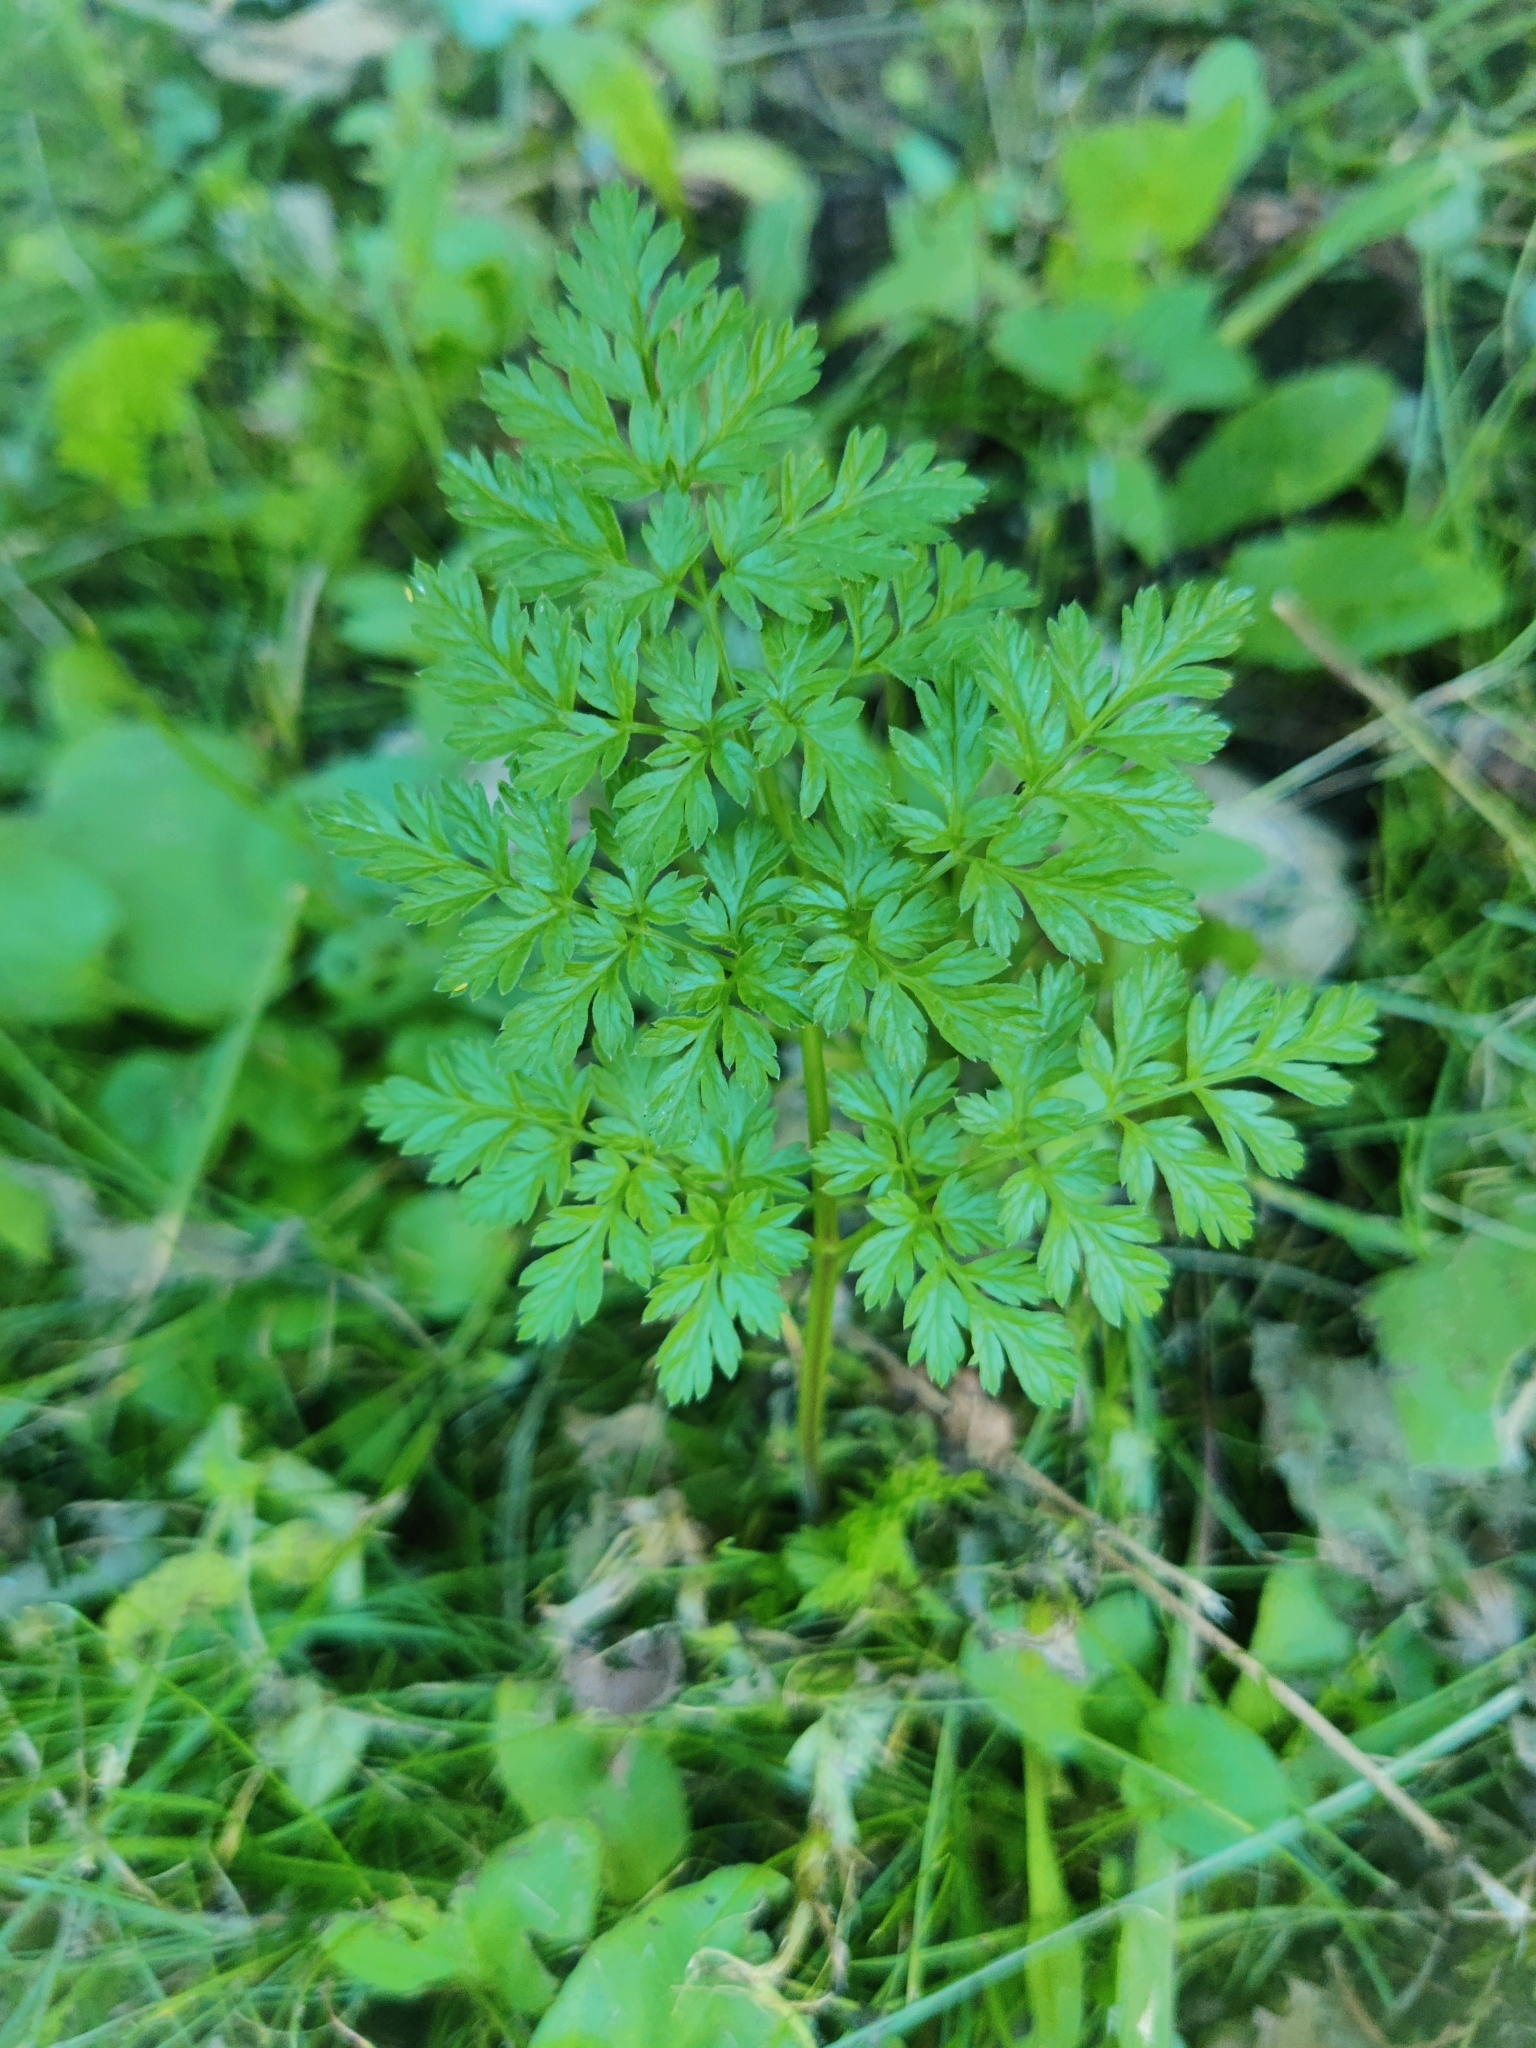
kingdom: Plantae
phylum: Tracheophyta
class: Magnoliopsida
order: Apiales
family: Apiaceae
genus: Anthriscus
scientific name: Anthriscus sylvestris
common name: Cow parsley
